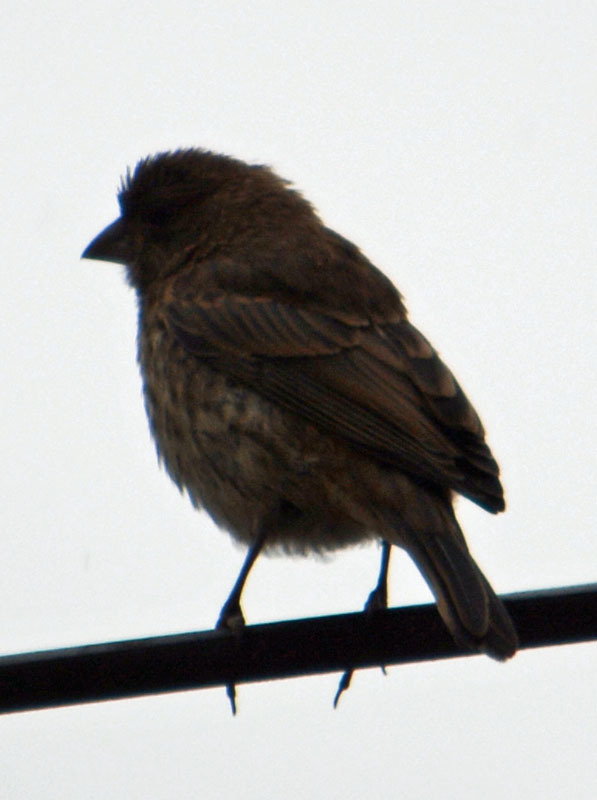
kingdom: Animalia
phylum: Chordata
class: Aves
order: Passeriformes
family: Fringillidae
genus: Haemorhous
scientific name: Haemorhous mexicanus
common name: House finch
